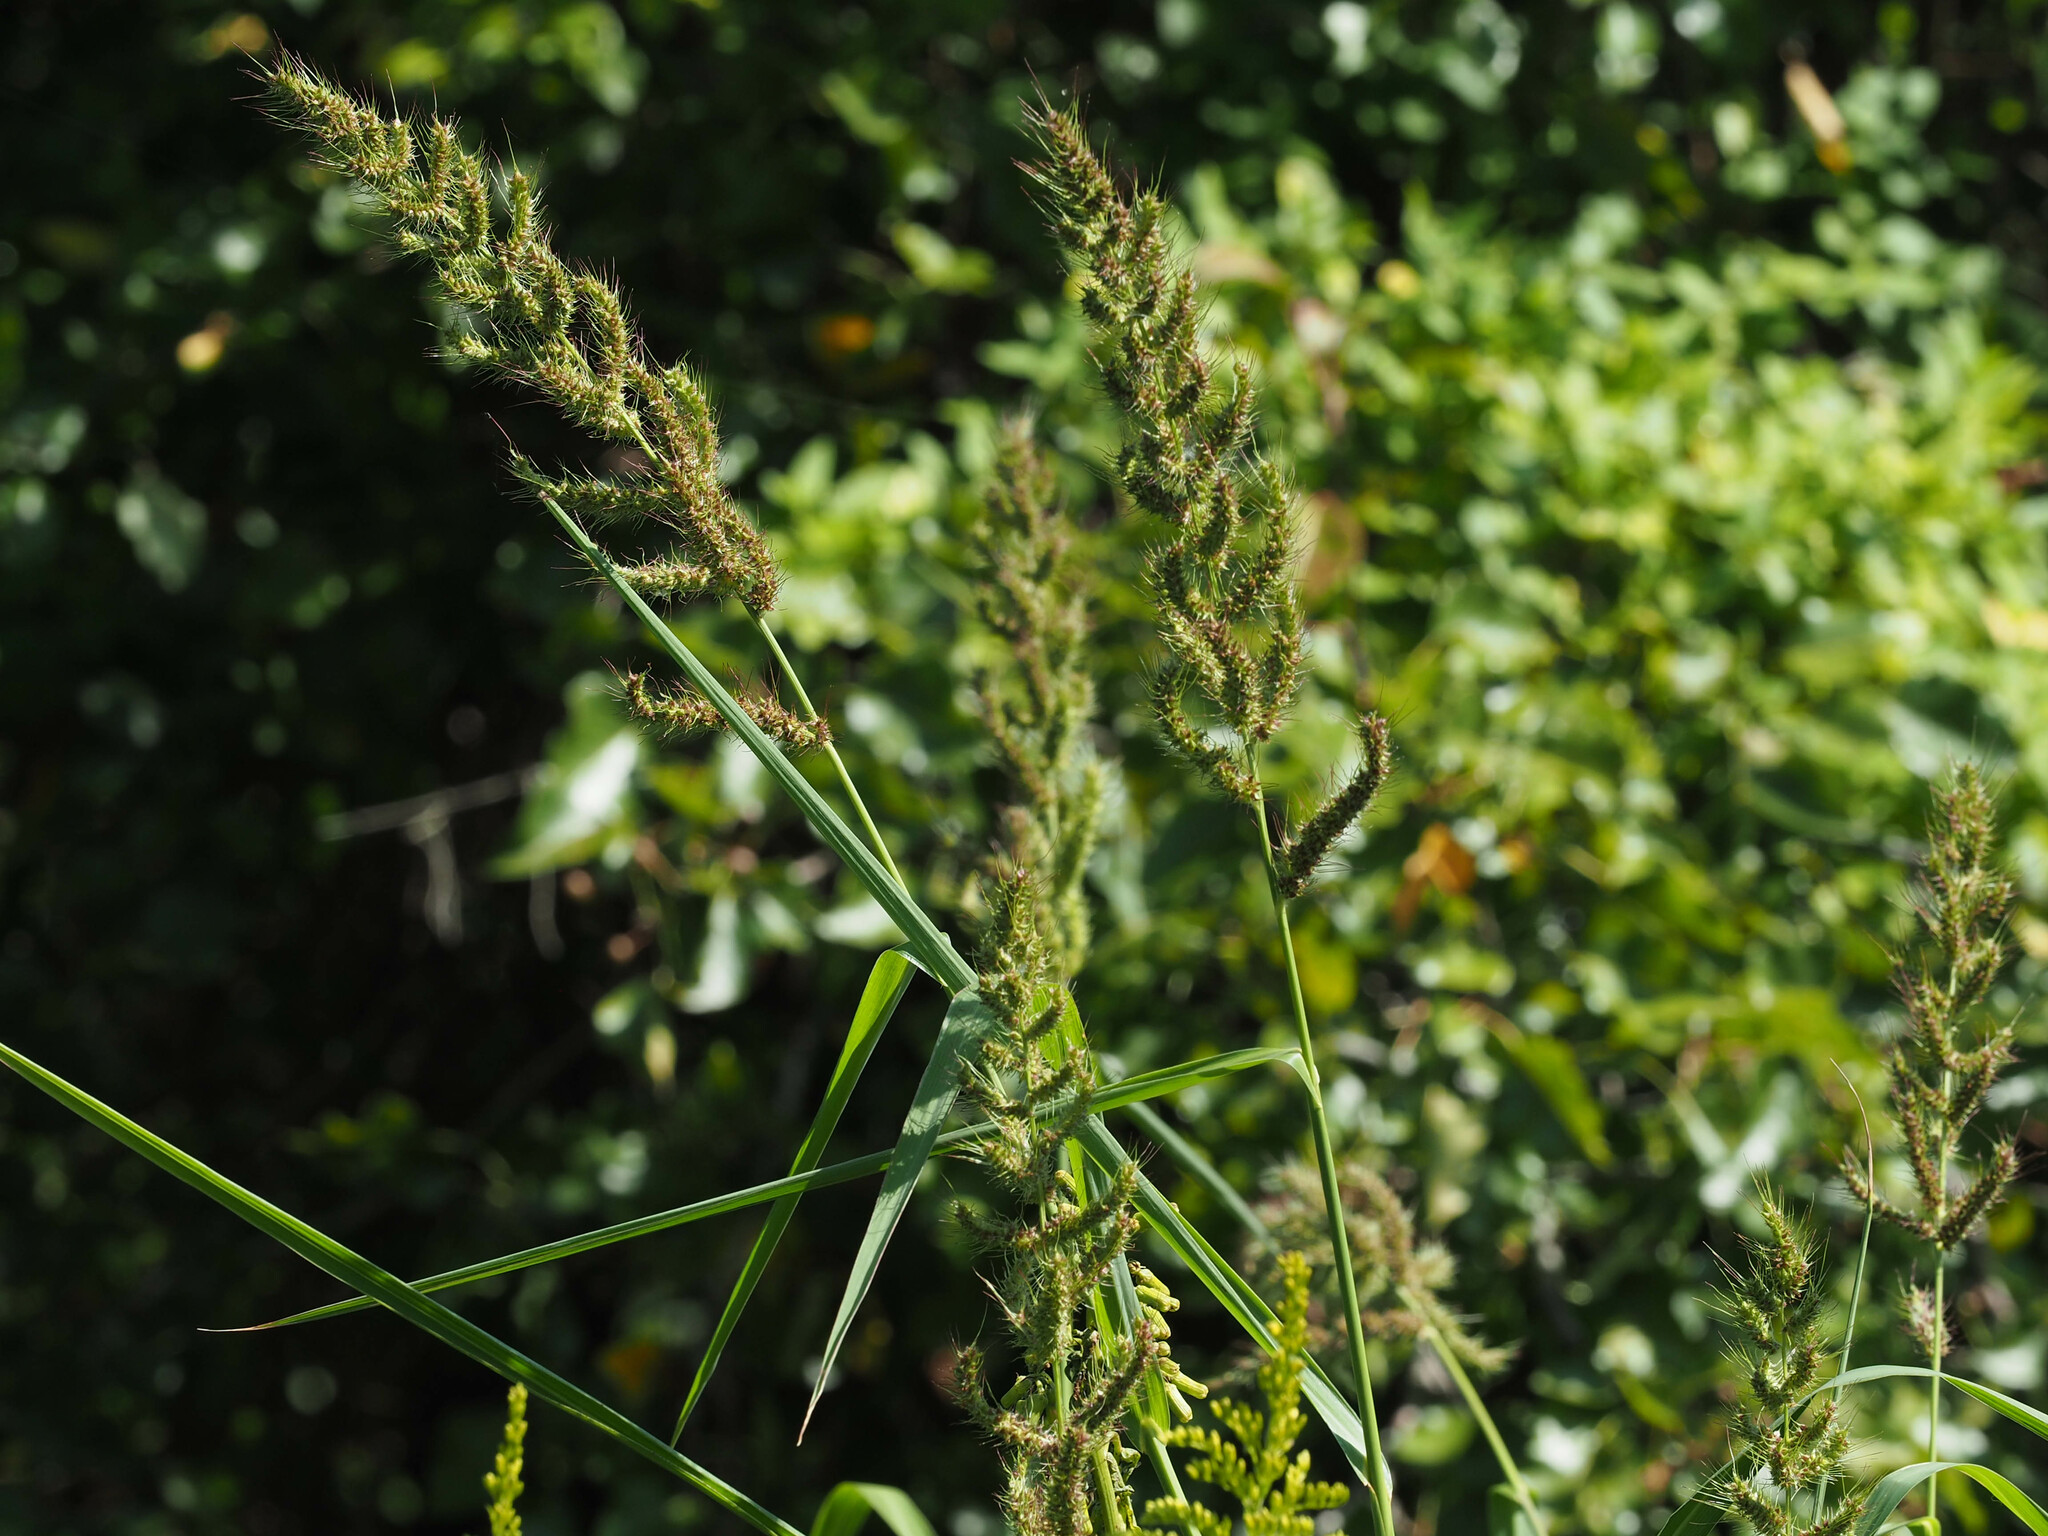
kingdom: Plantae
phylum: Tracheophyta
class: Liliopsida
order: Poales
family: Poaceae
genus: Echinochloa
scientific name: Echinochloa crus-galli
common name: Cockspur
